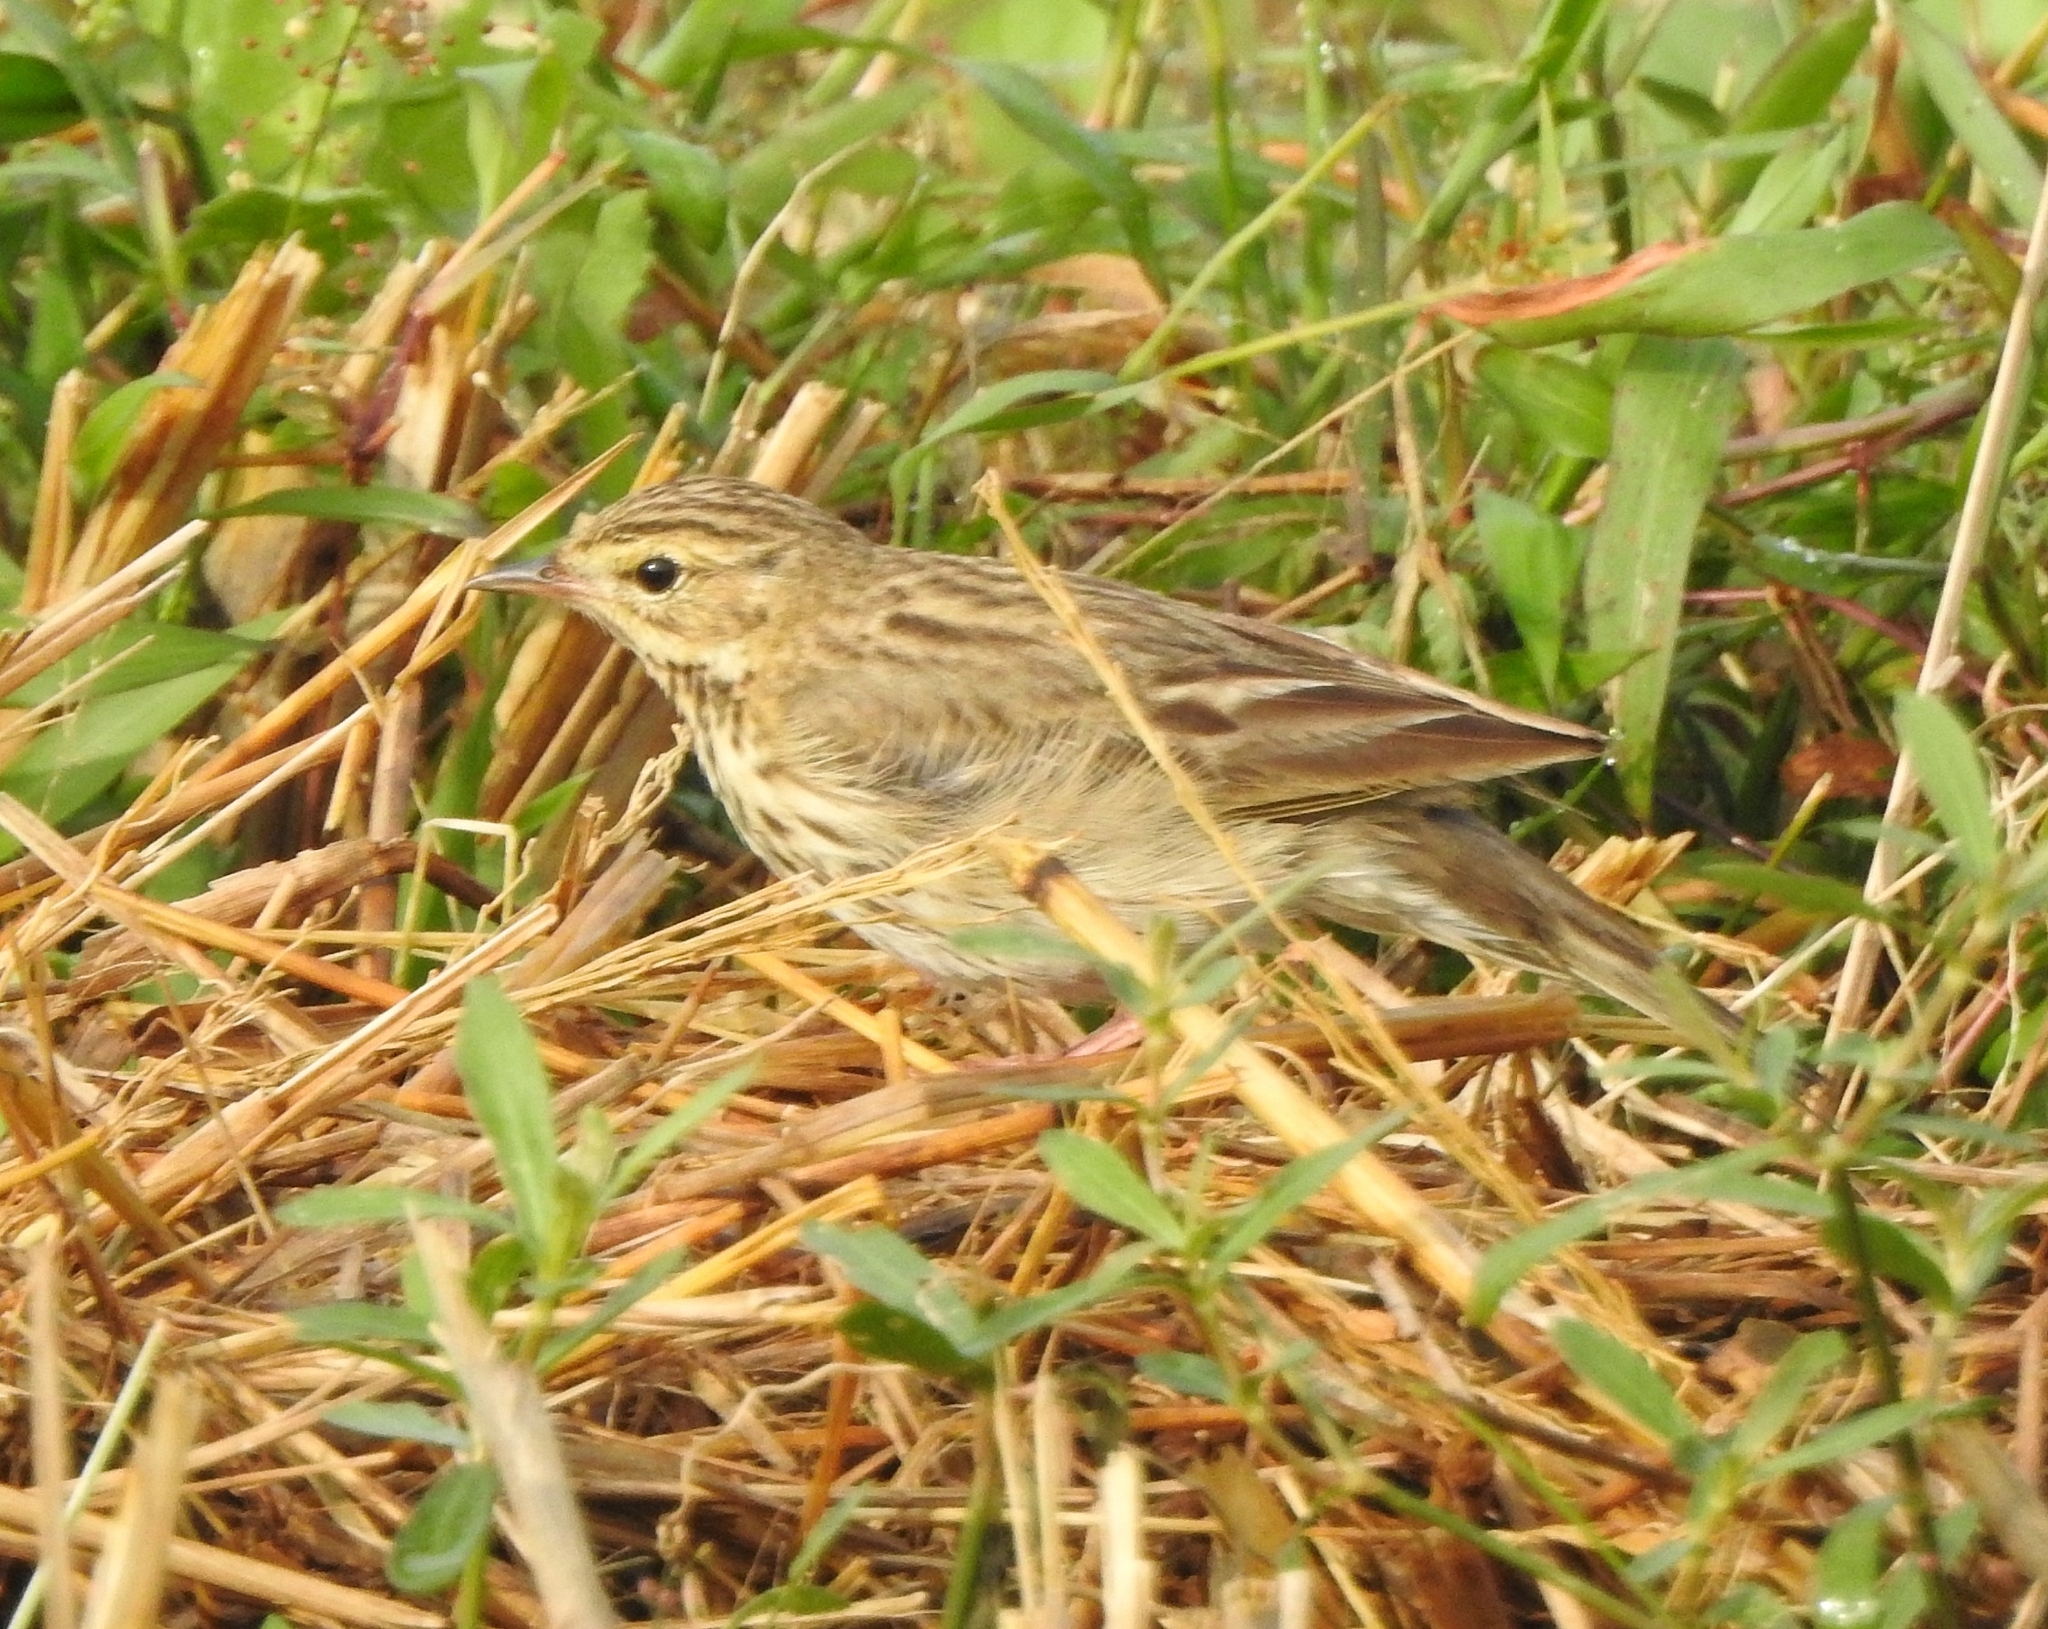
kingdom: Animalia
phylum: Chordata
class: Aves
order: Passeriformes
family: Motacillidae
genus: Anthus
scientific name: Anthus trivialis
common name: Tree pipit
